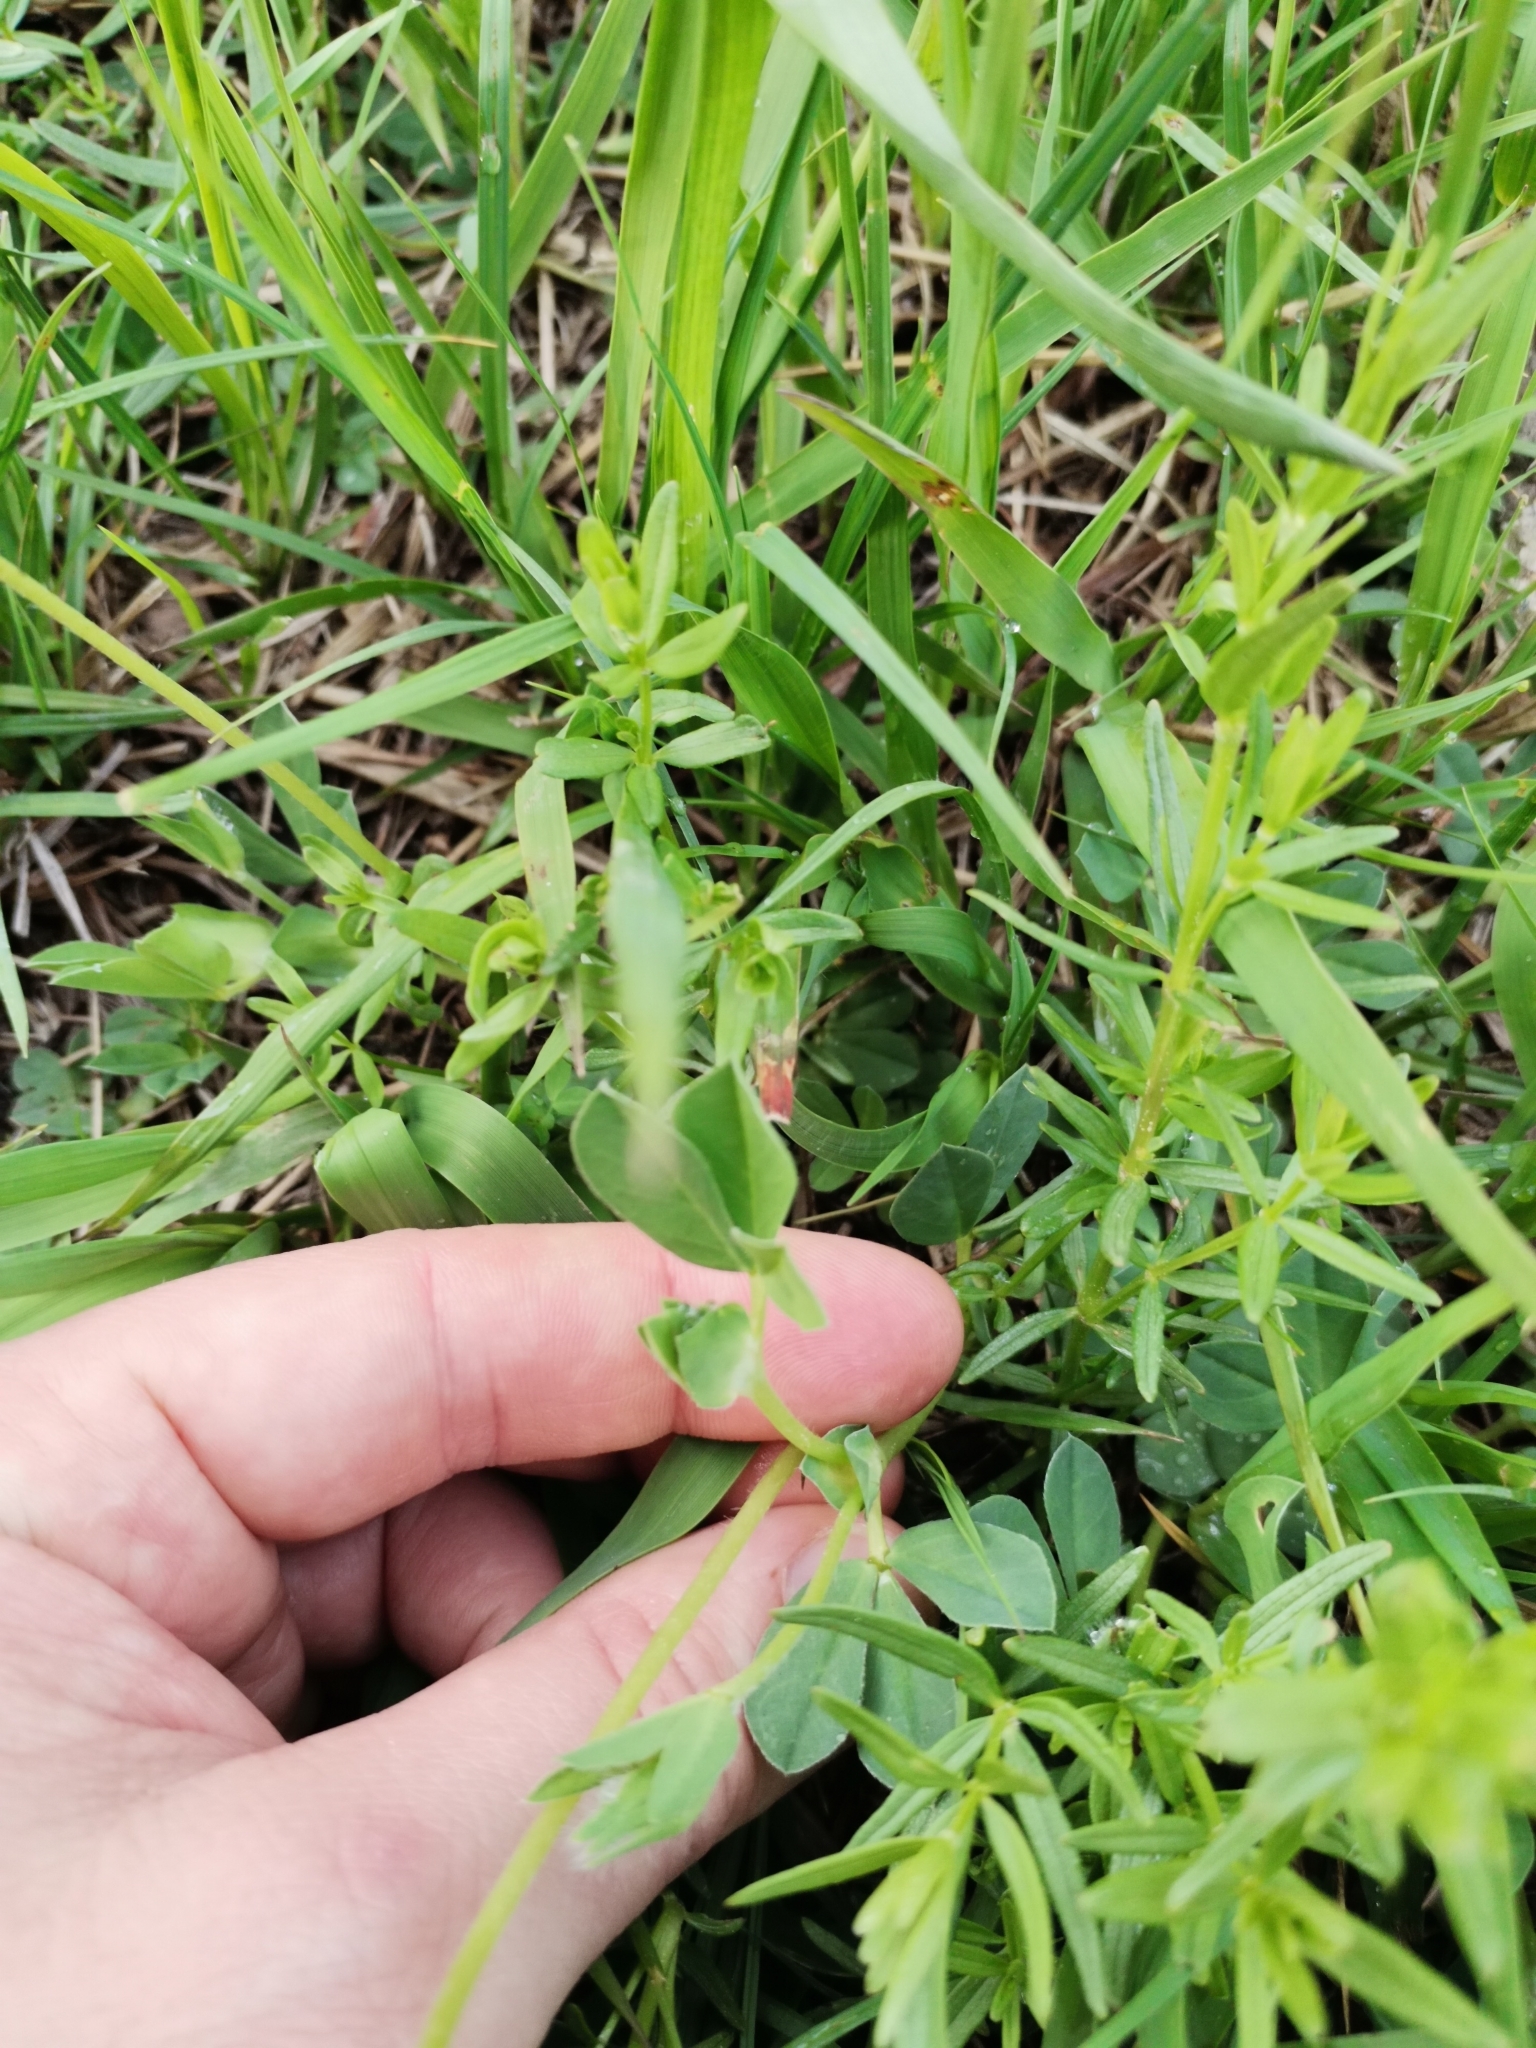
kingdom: Plantae
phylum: Tracheophyta
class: Magnoliopsida
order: Fabales
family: Fabaceae
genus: Lotus
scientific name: Lotus maritimus
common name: Dragon's-teeth
